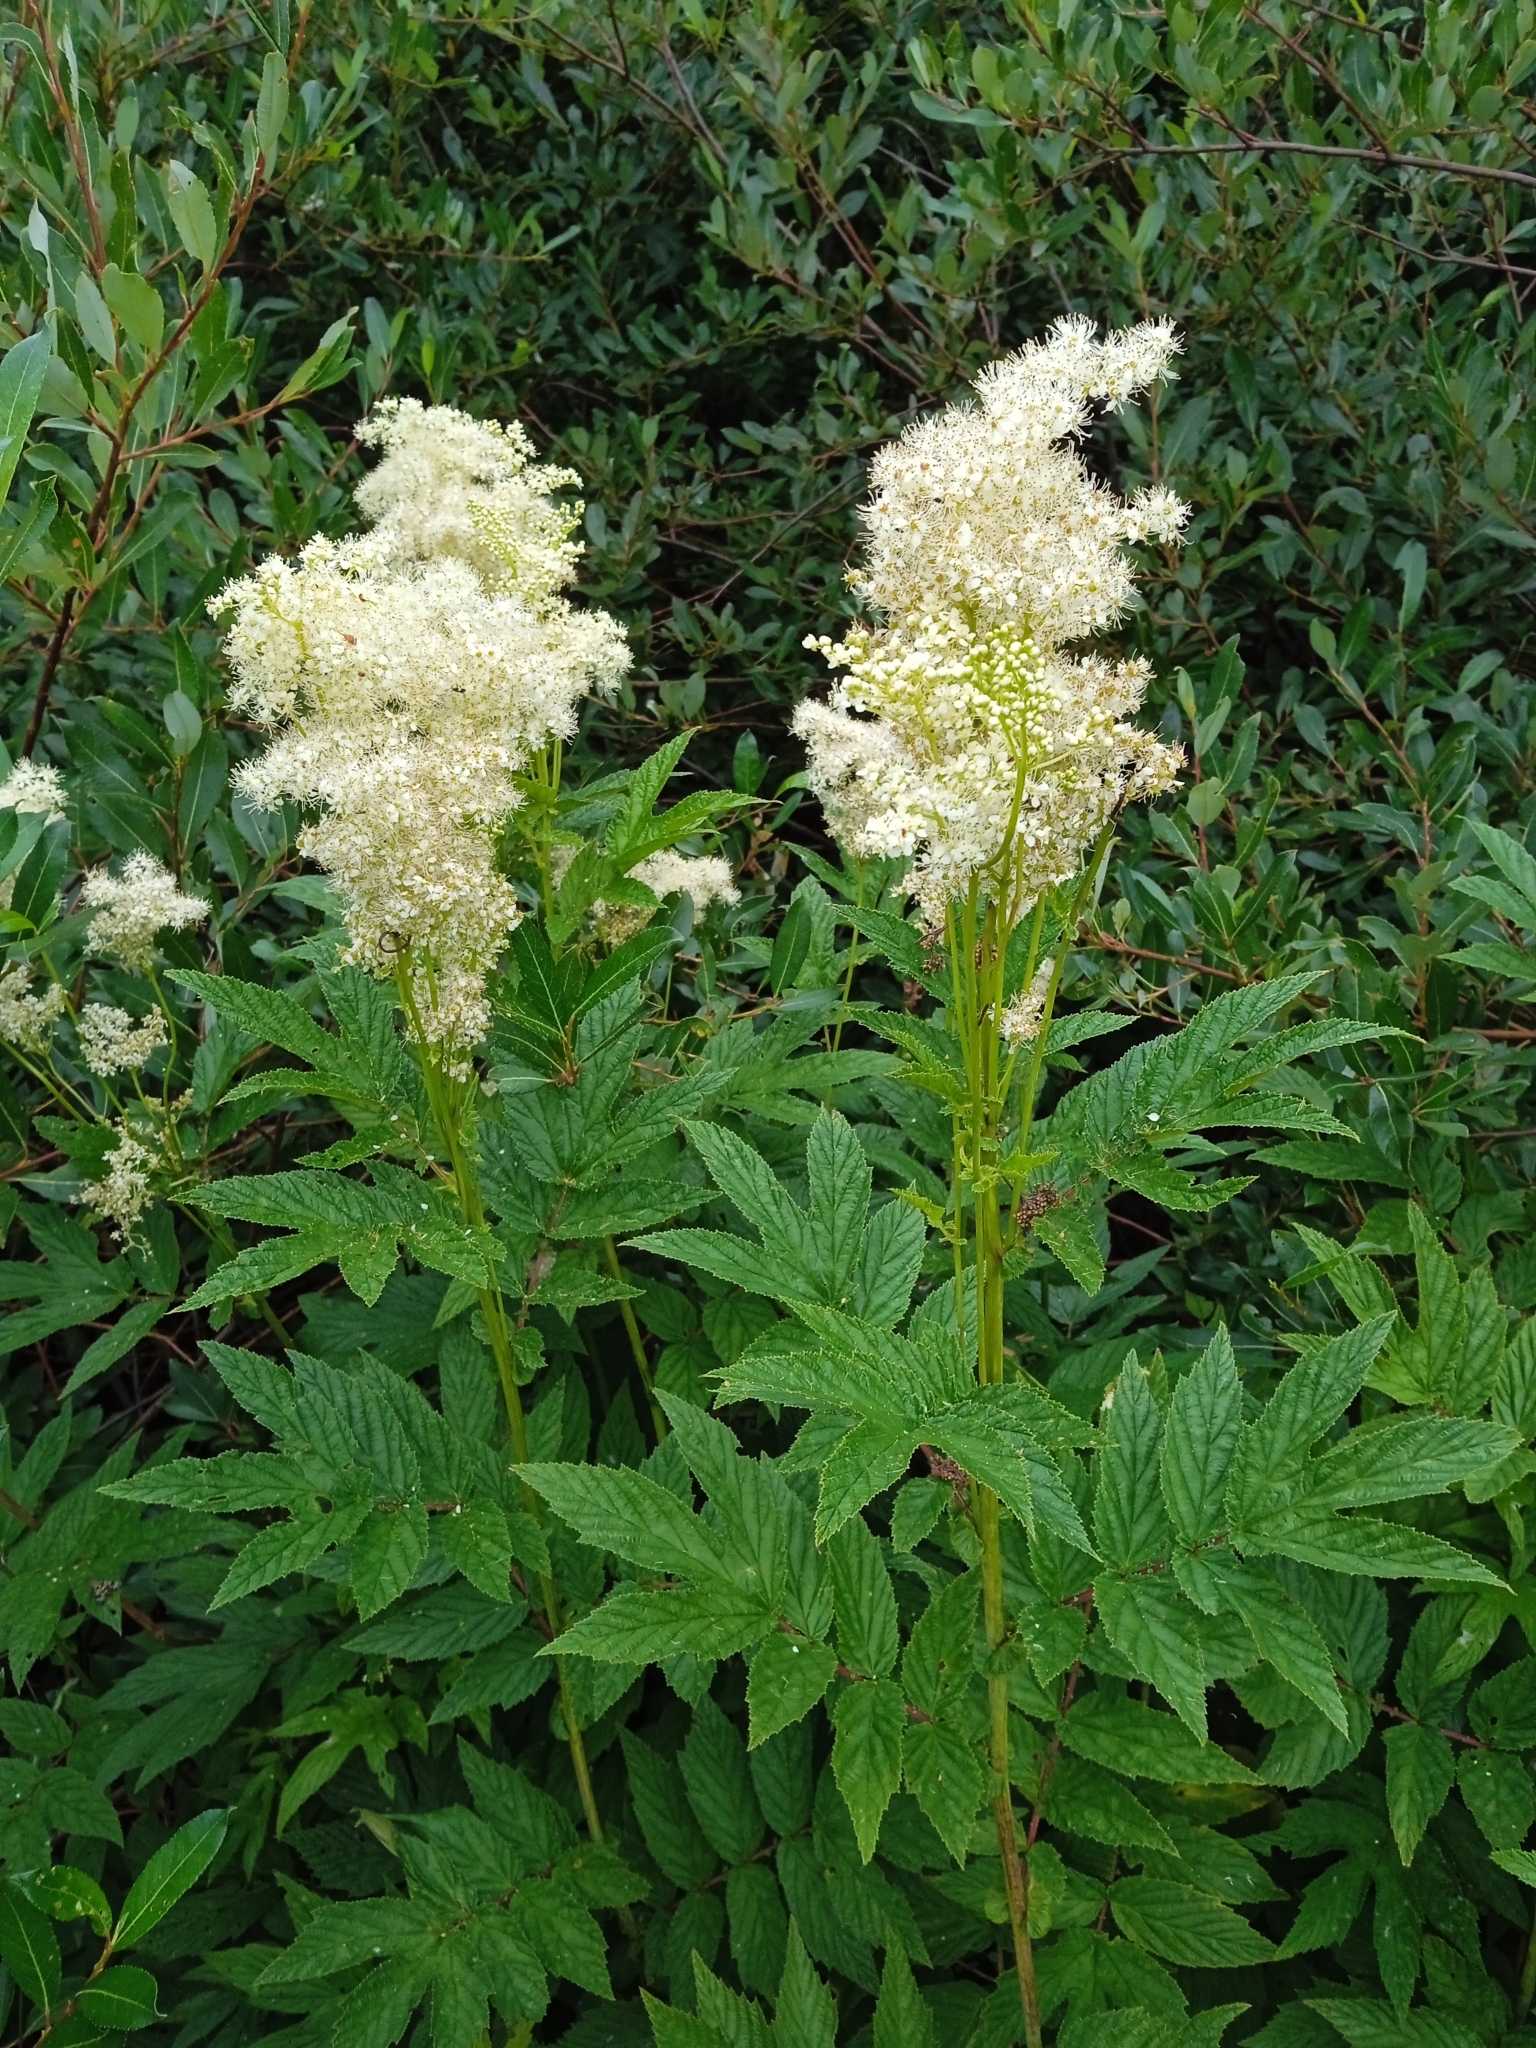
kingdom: Plantae
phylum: Tracheophyta
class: Magnoliopsida
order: Rosales
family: Rosaceae
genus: Filipendula
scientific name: Filipendula ulmaria
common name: Meadowsweet
